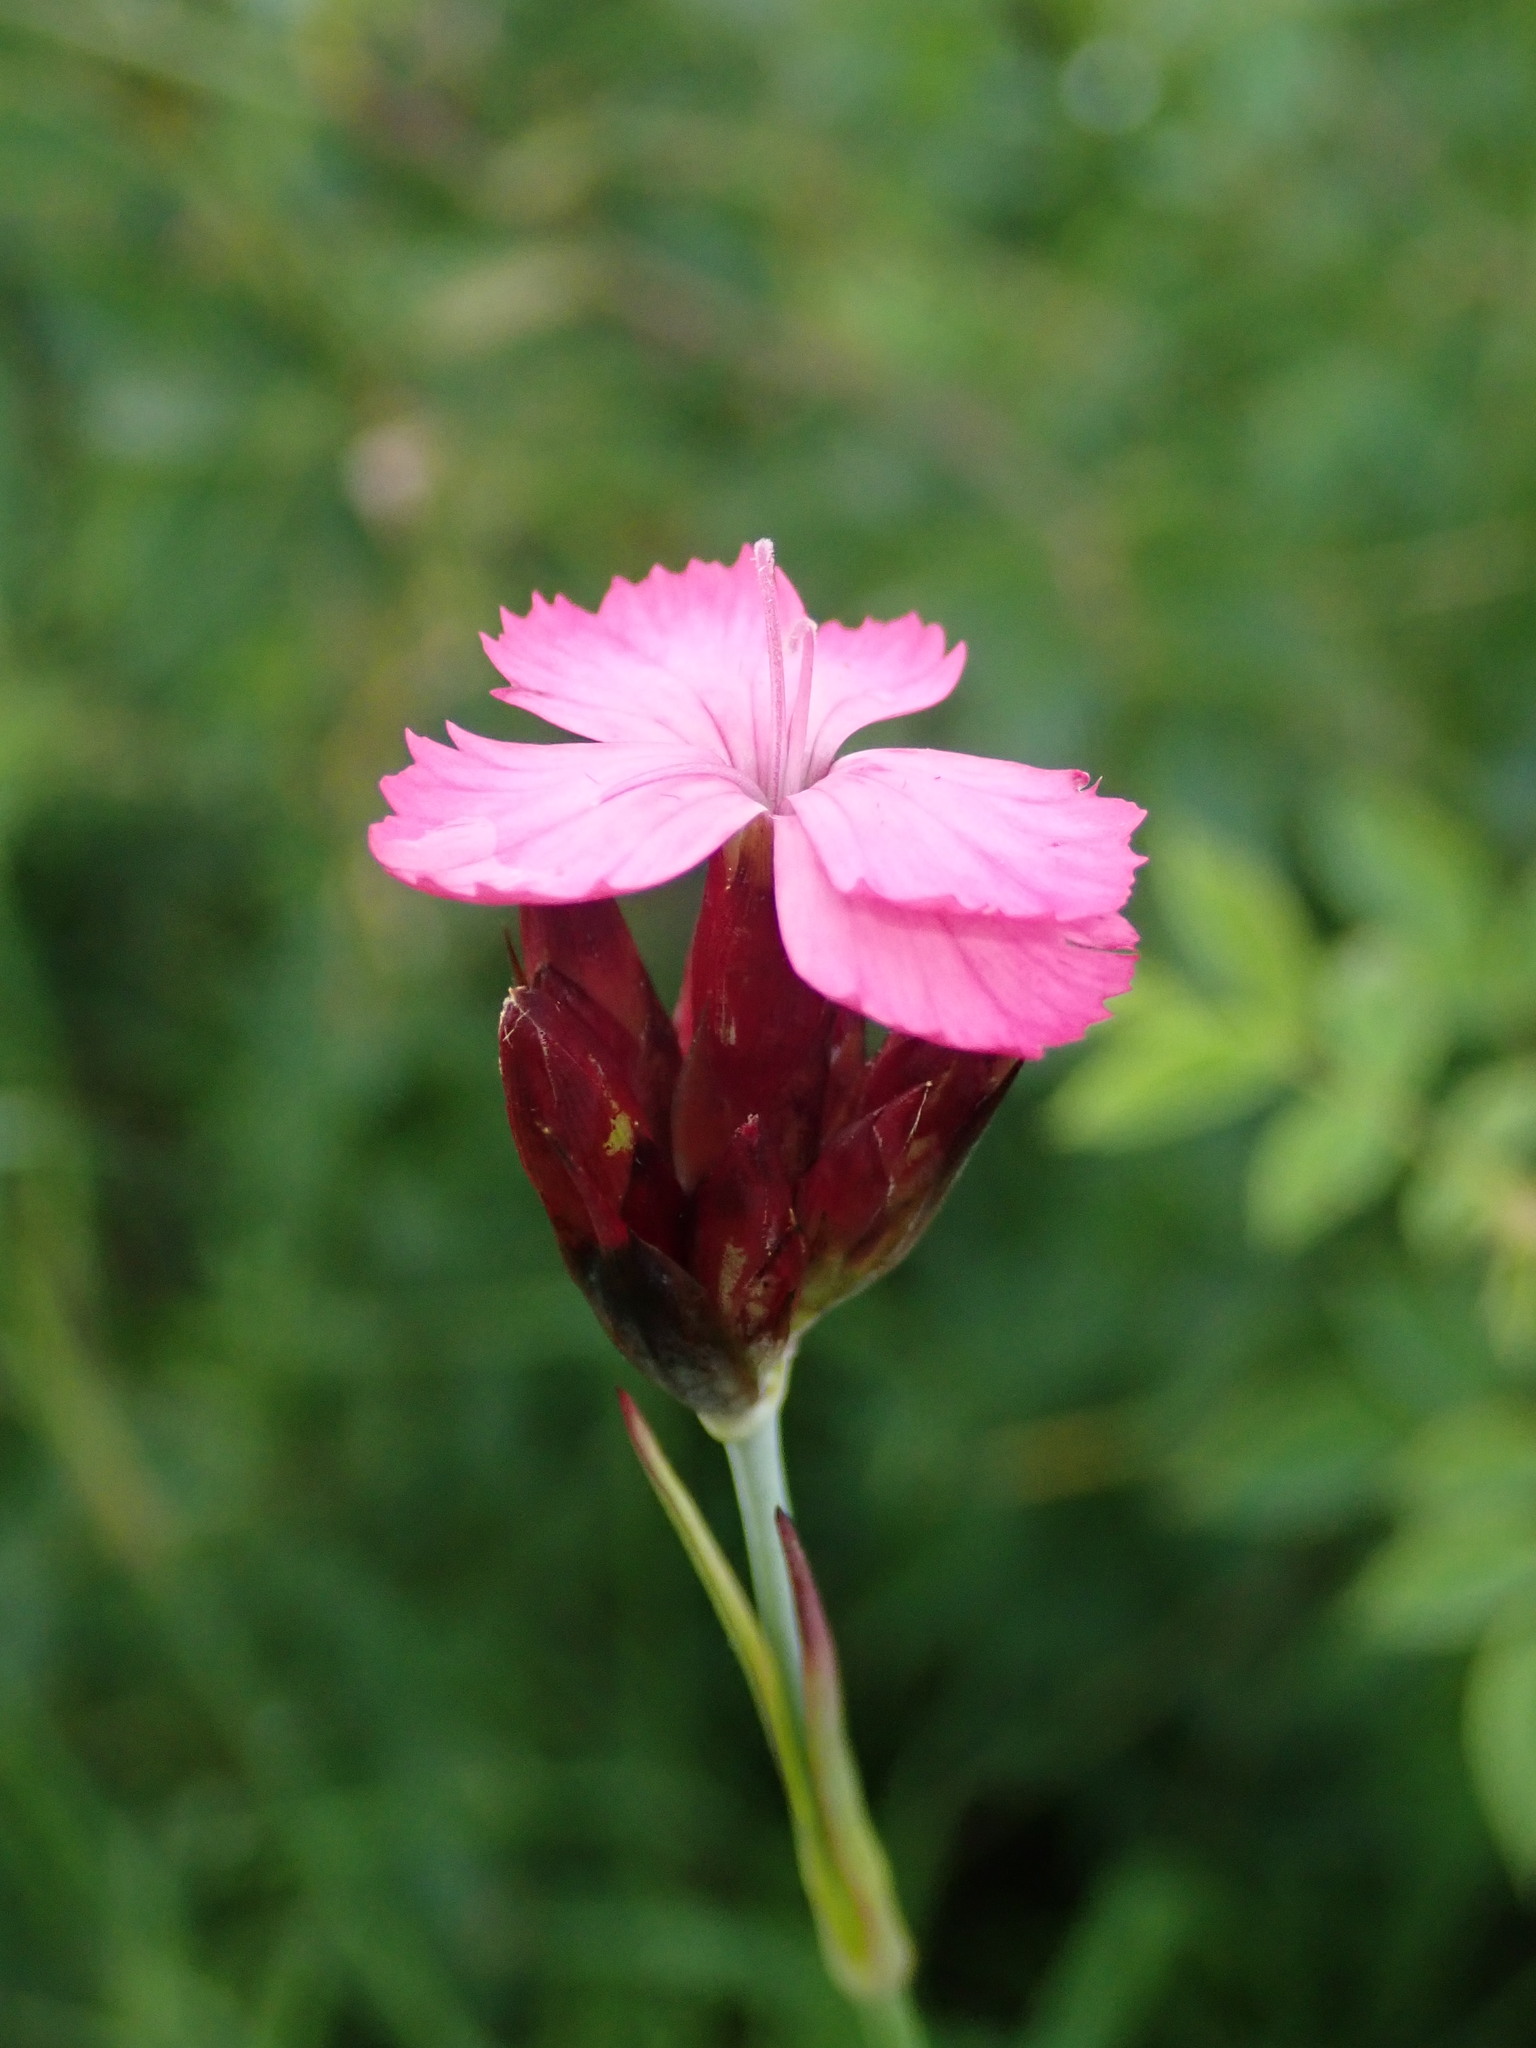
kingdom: Plantae
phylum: Tracheophyta
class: Magnoliopsida
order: Caryophyllales
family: Caryophyllaceae
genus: Dianthus
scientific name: Dianthus carthusianorum
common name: Carthusian pink
